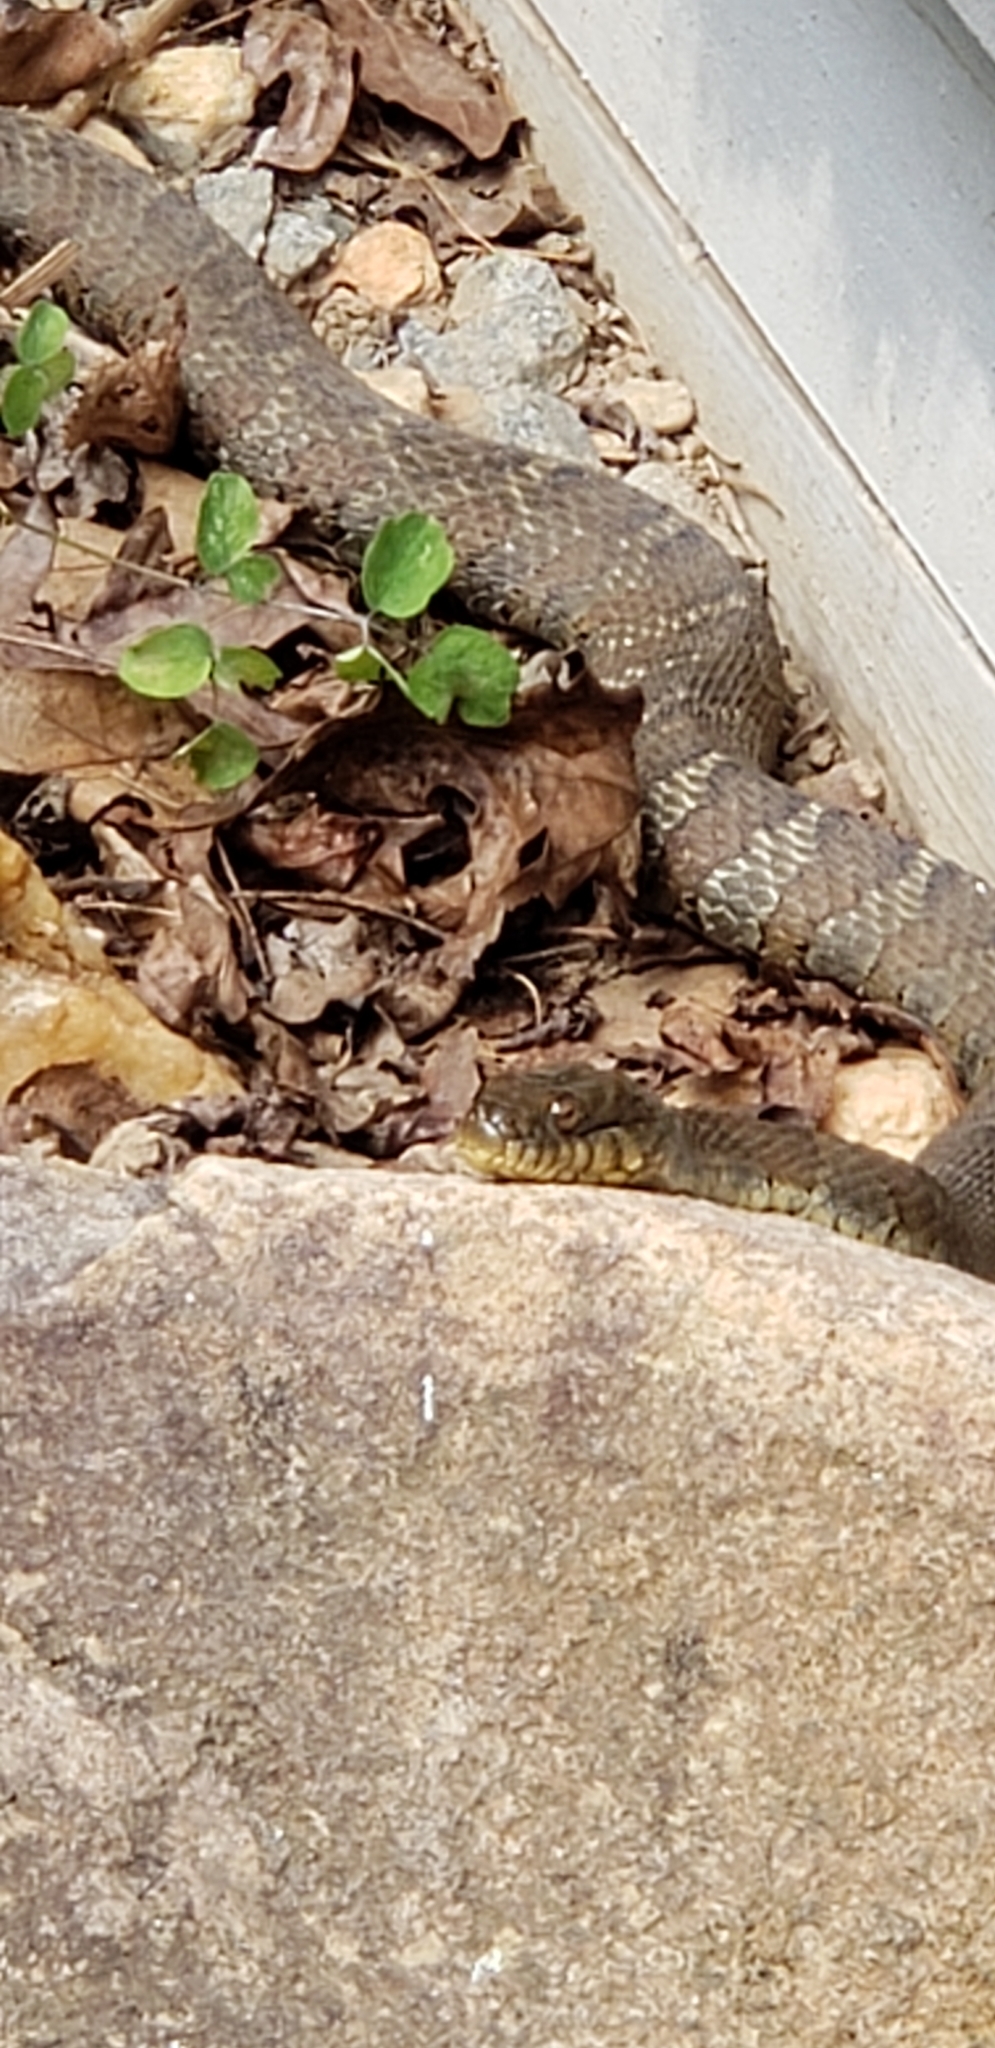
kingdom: Animalia
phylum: Chordata
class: Squamata
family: Colubridae
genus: Nerodia
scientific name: Nerodia sipedon
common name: Northern water snake
